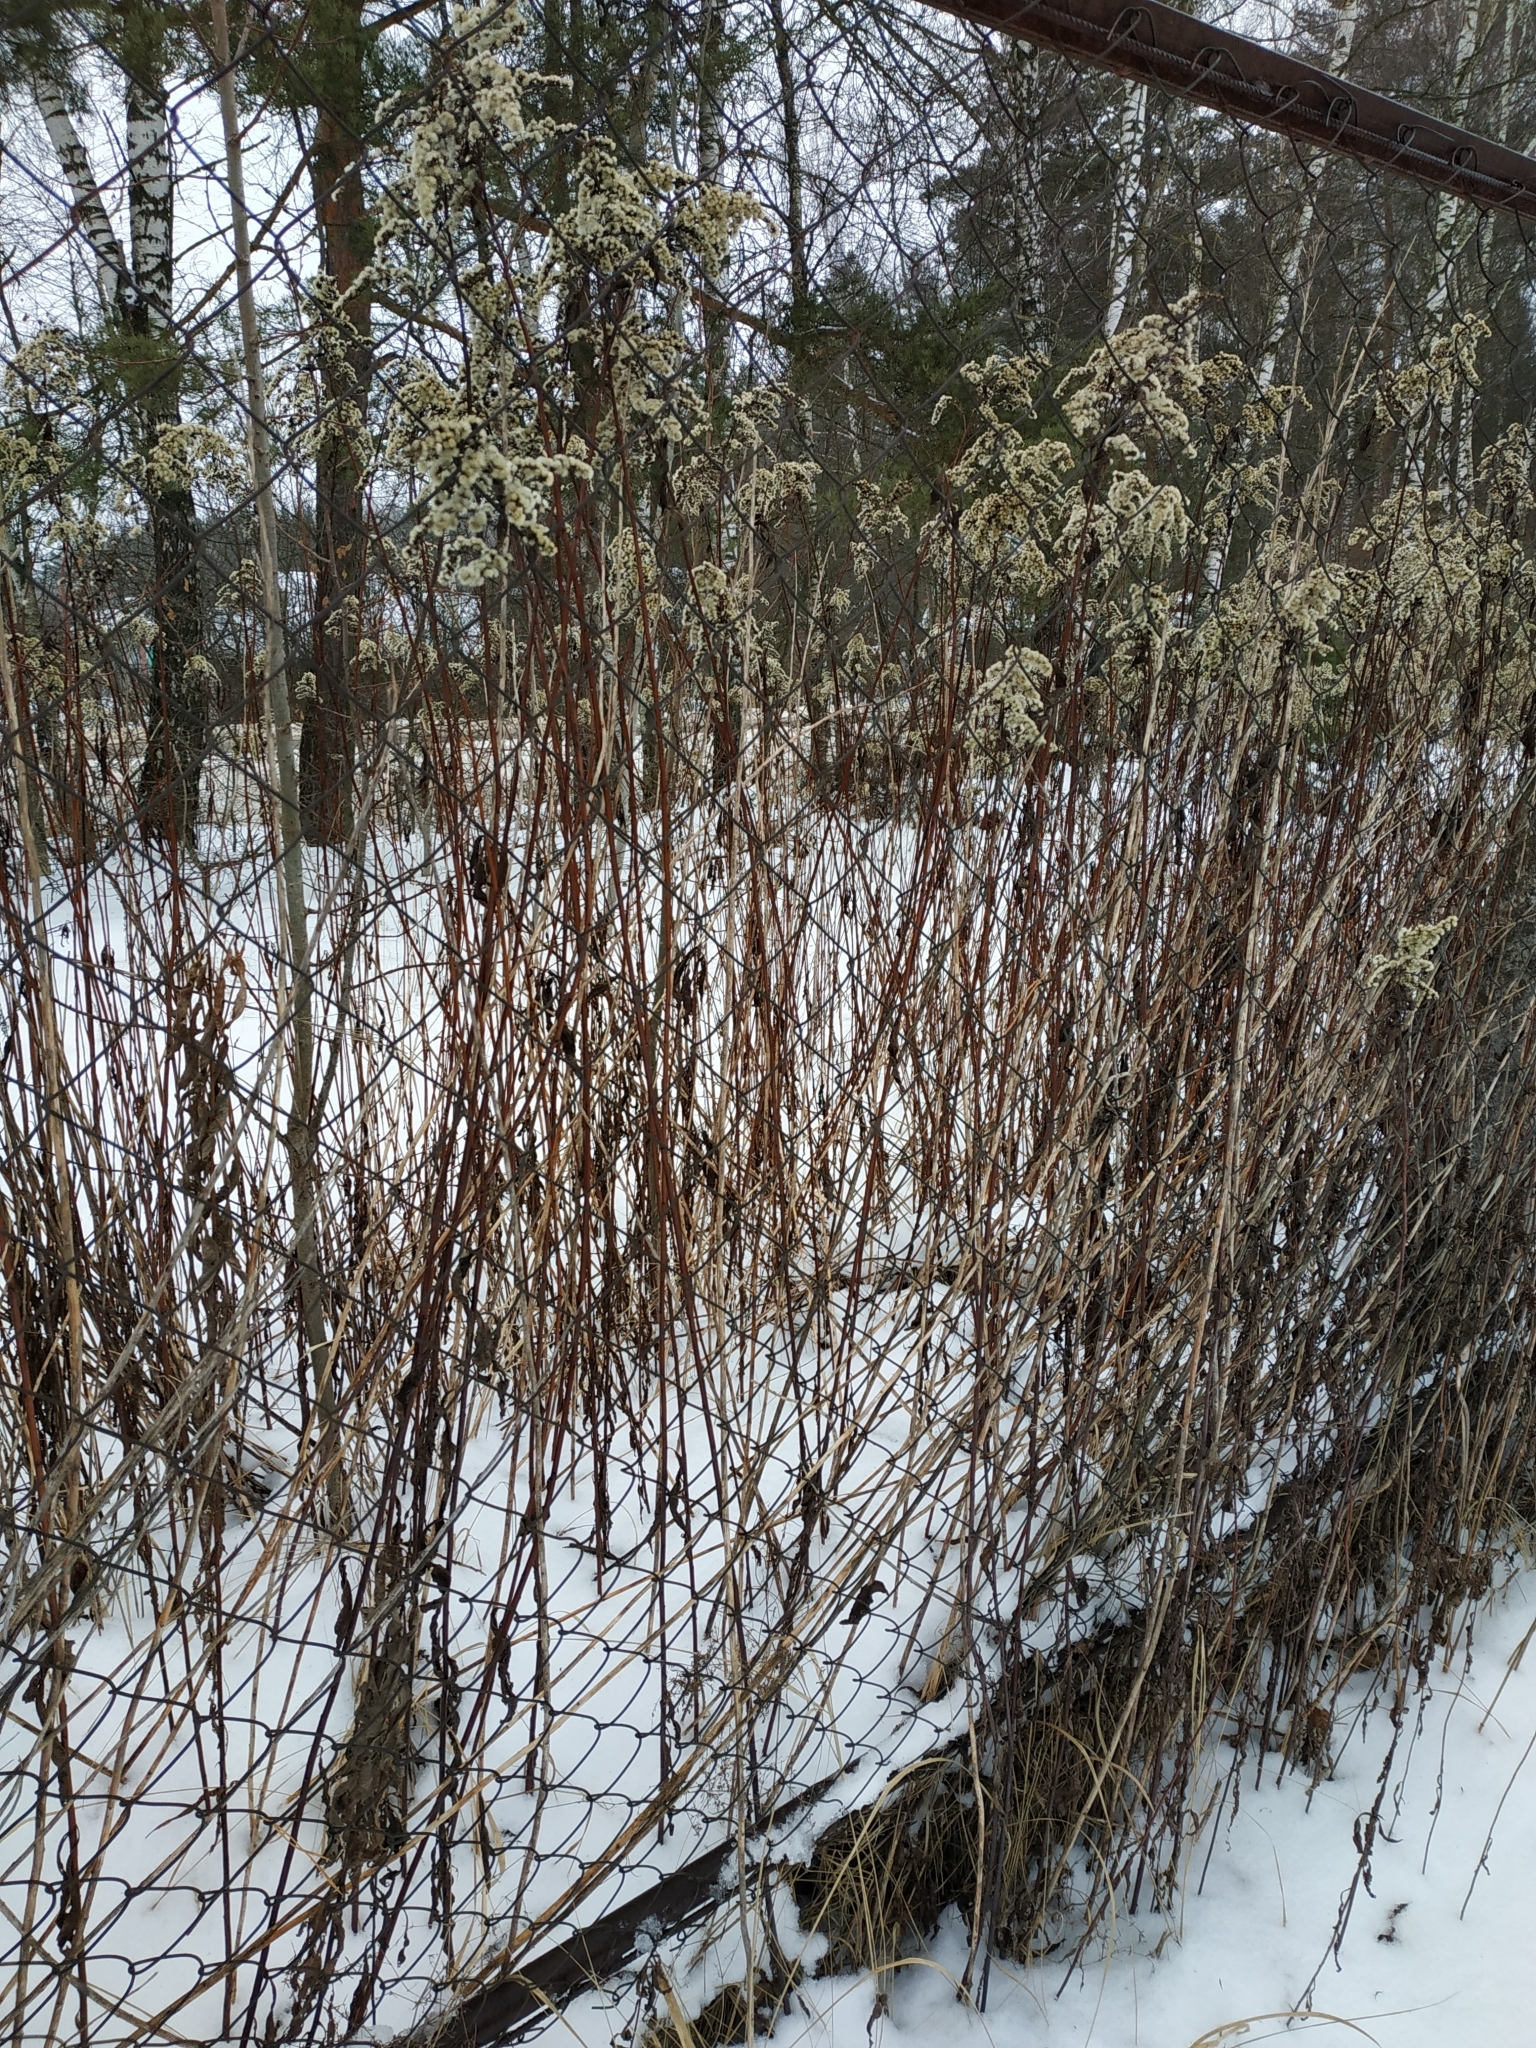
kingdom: Plantae
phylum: Tracheophyta
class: Magnoliopsida
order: Asterales
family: Asteraceae
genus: Solidago
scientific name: Solidago gigantea
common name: Giant goldenrod
